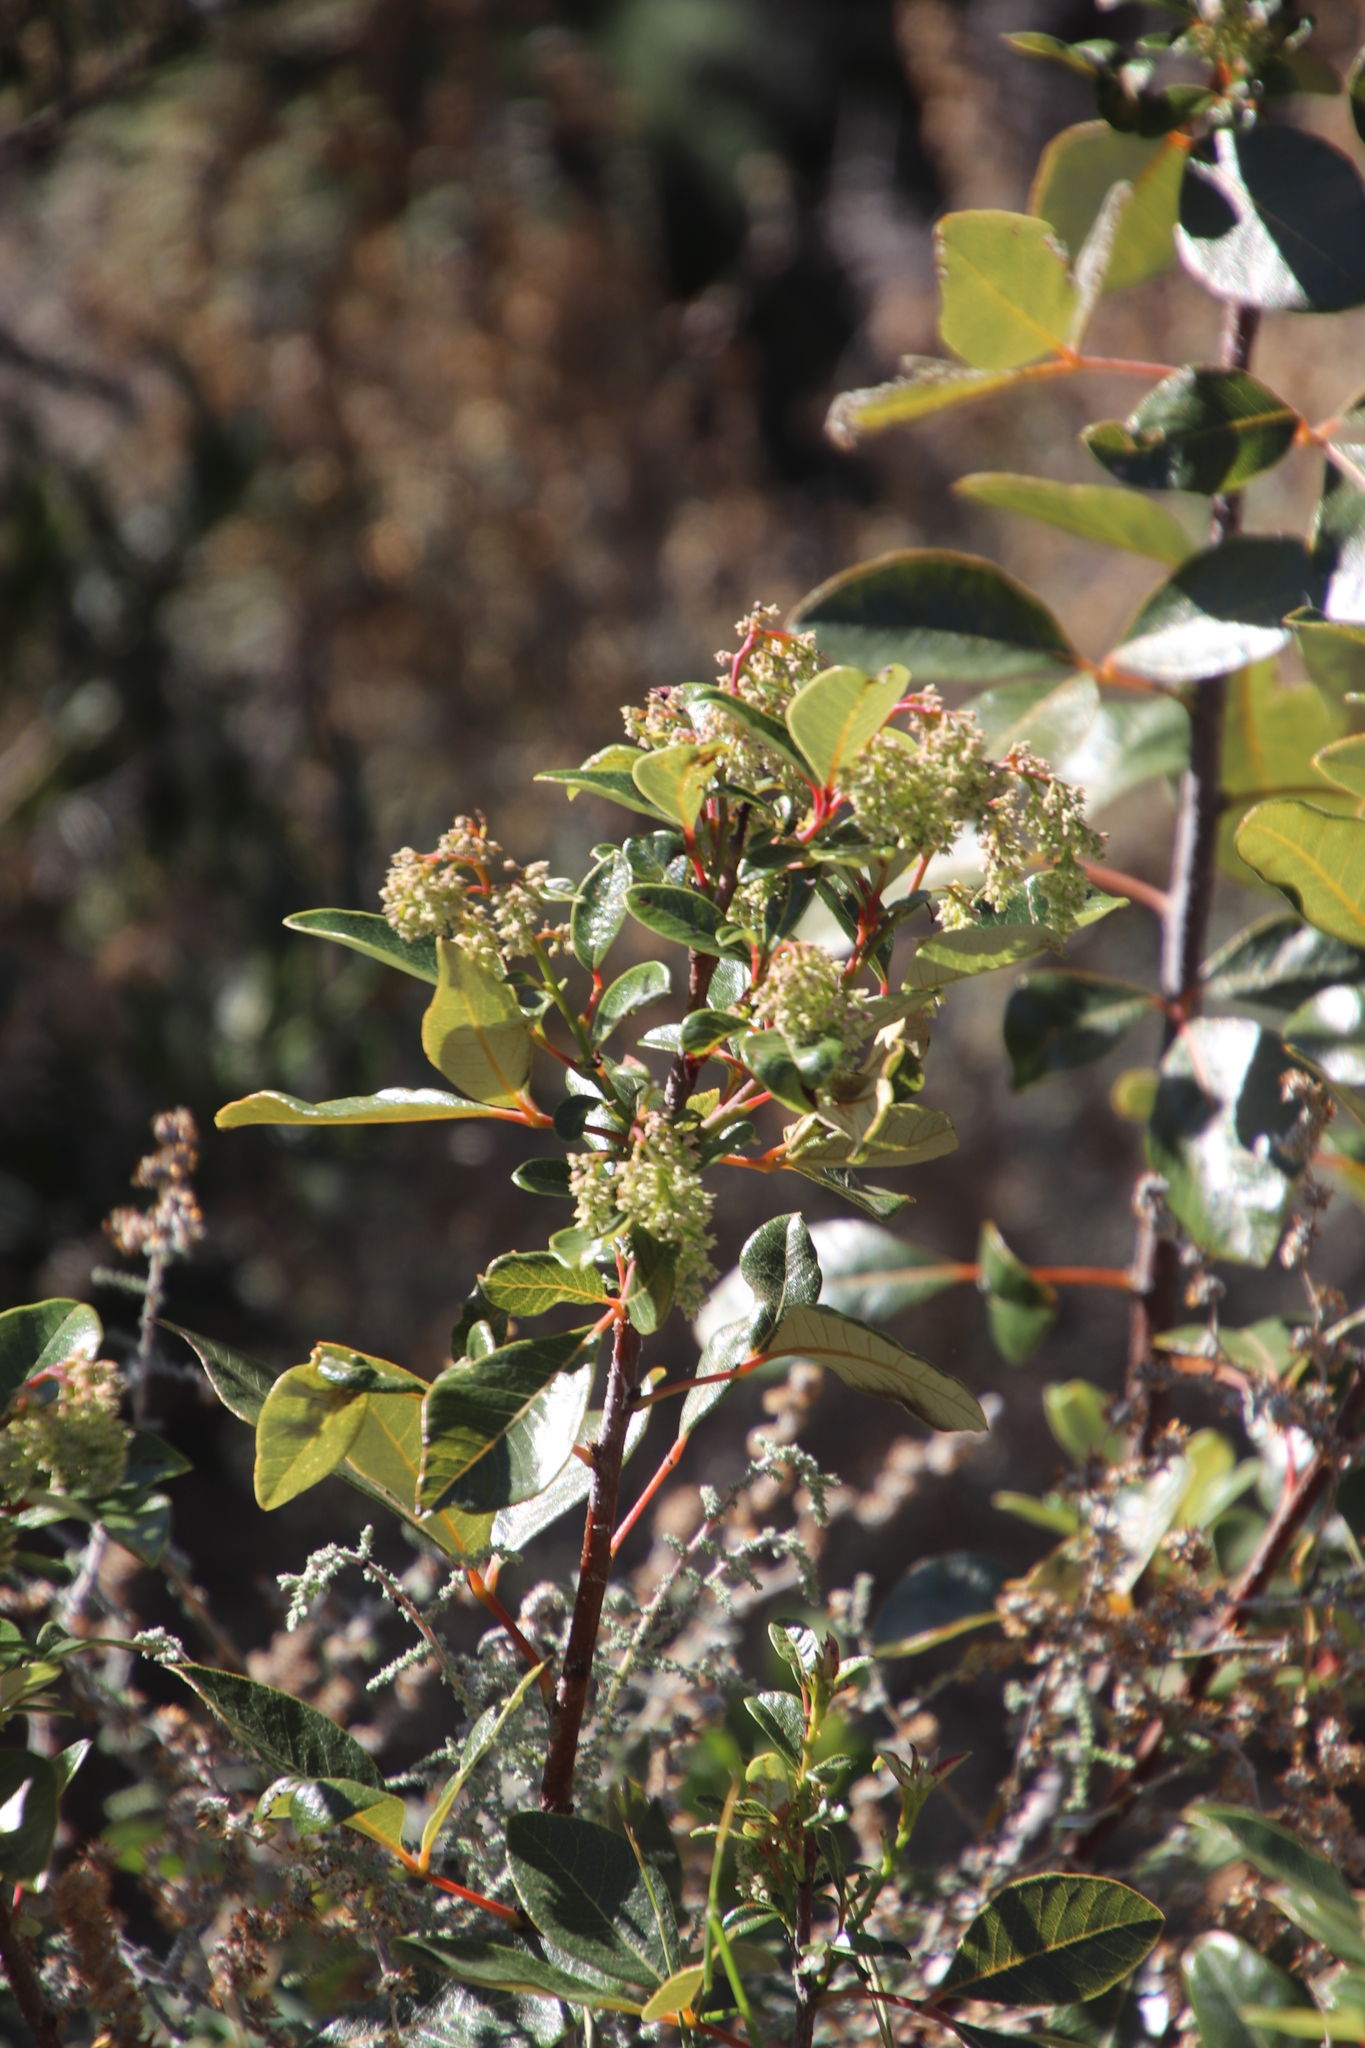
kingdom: Plantae
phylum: Tracheophyta
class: Magnoliopsida
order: Sapindales
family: Anacardiaceae
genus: Searsia
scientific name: Searsia tomentosa
